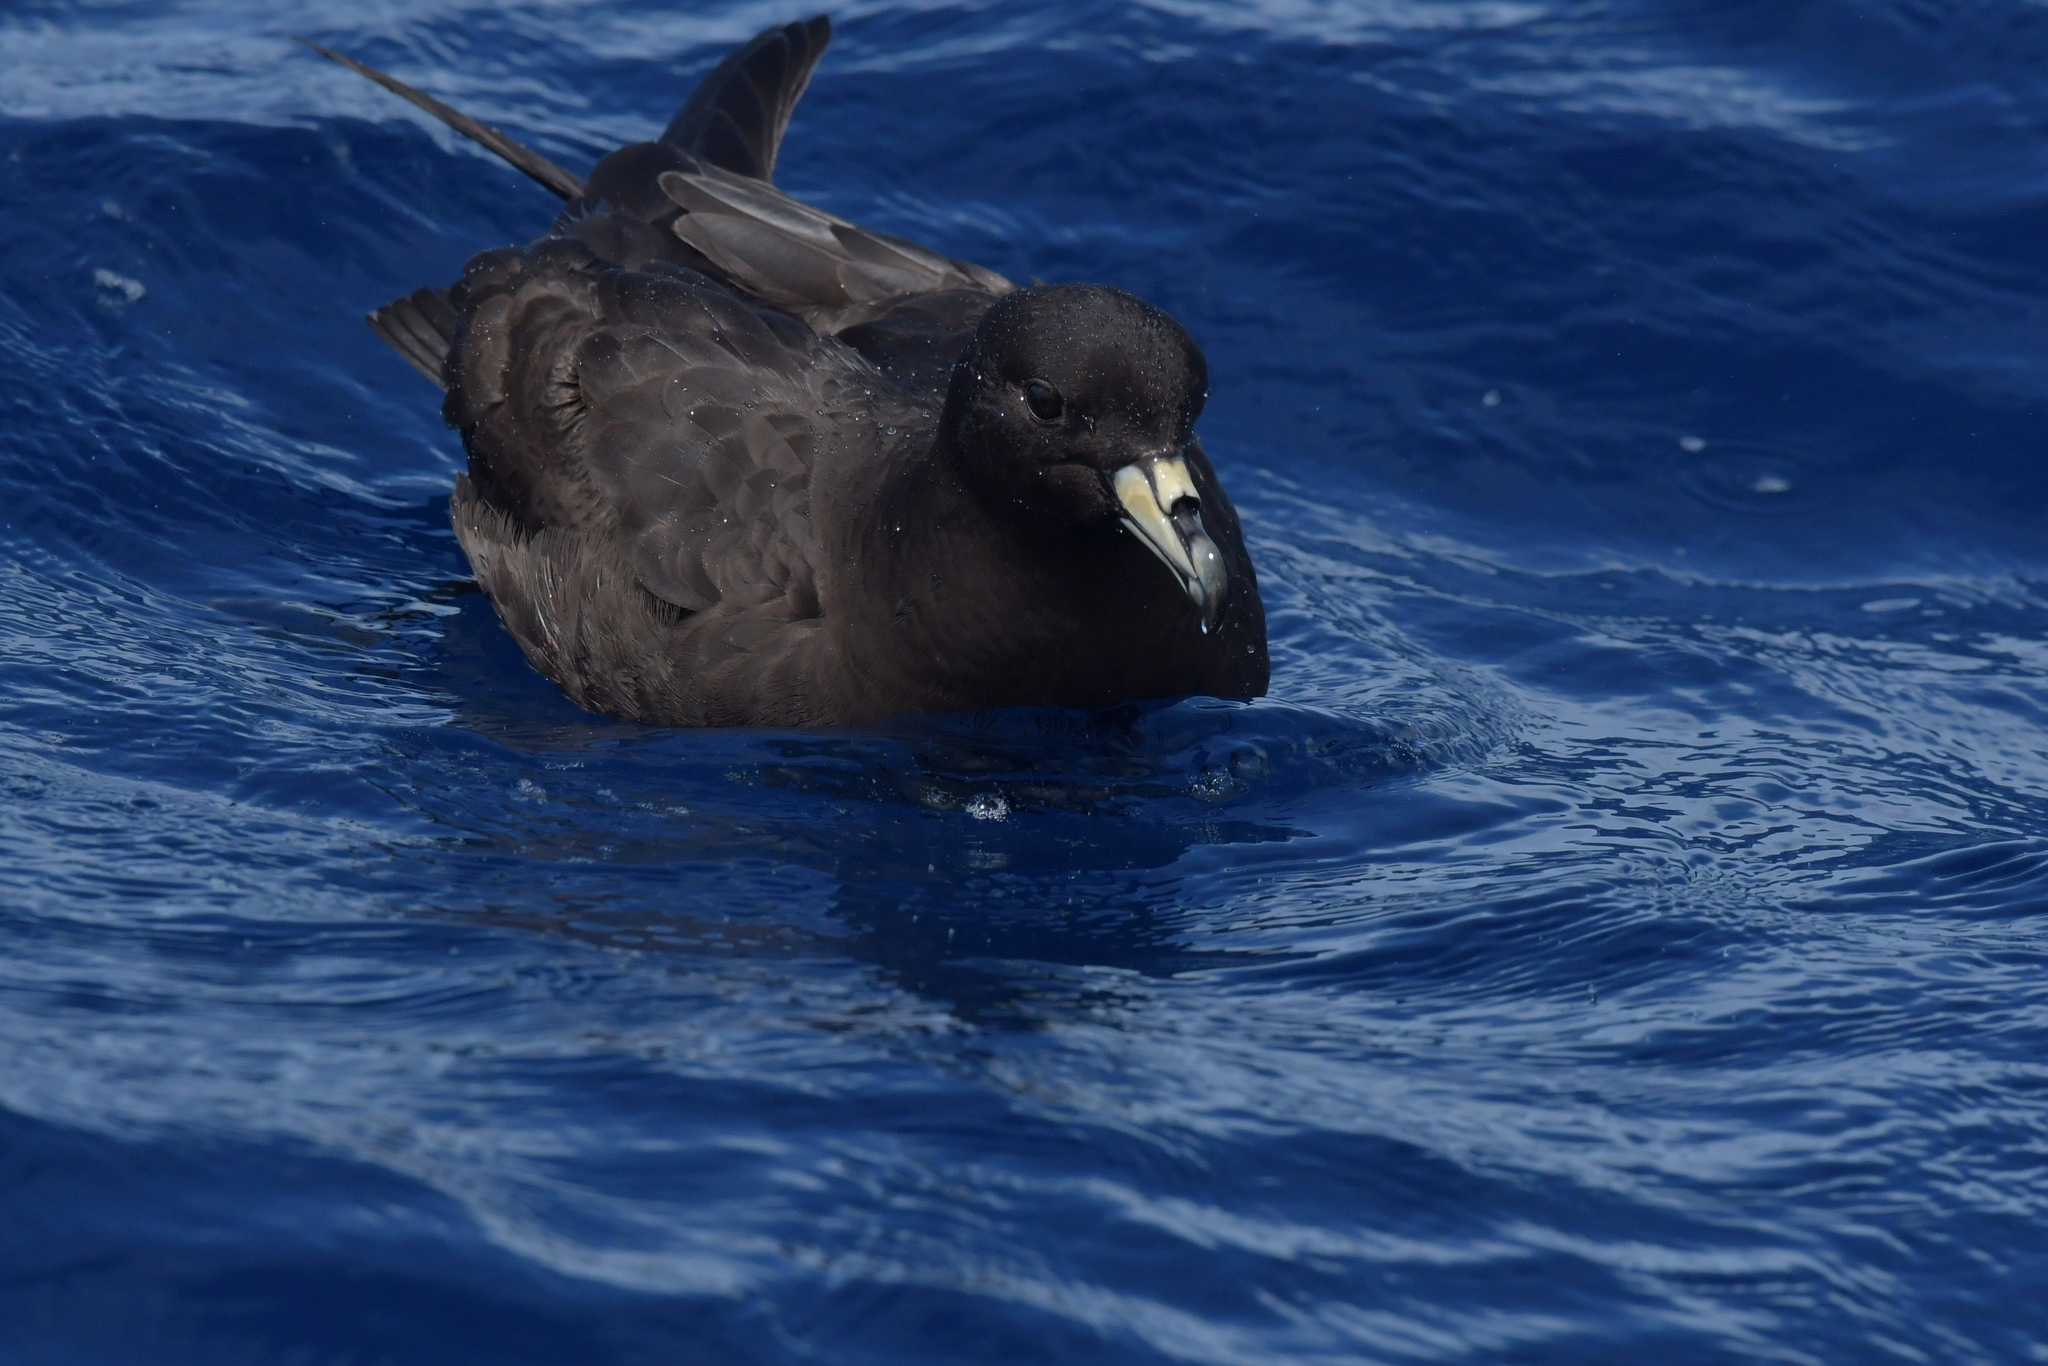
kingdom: Animalia
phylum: Chordata
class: Aves
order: Procellariiformes
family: Procellariidae
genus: Procellaria
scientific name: Procellaria parkinsoni
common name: Black petrel
